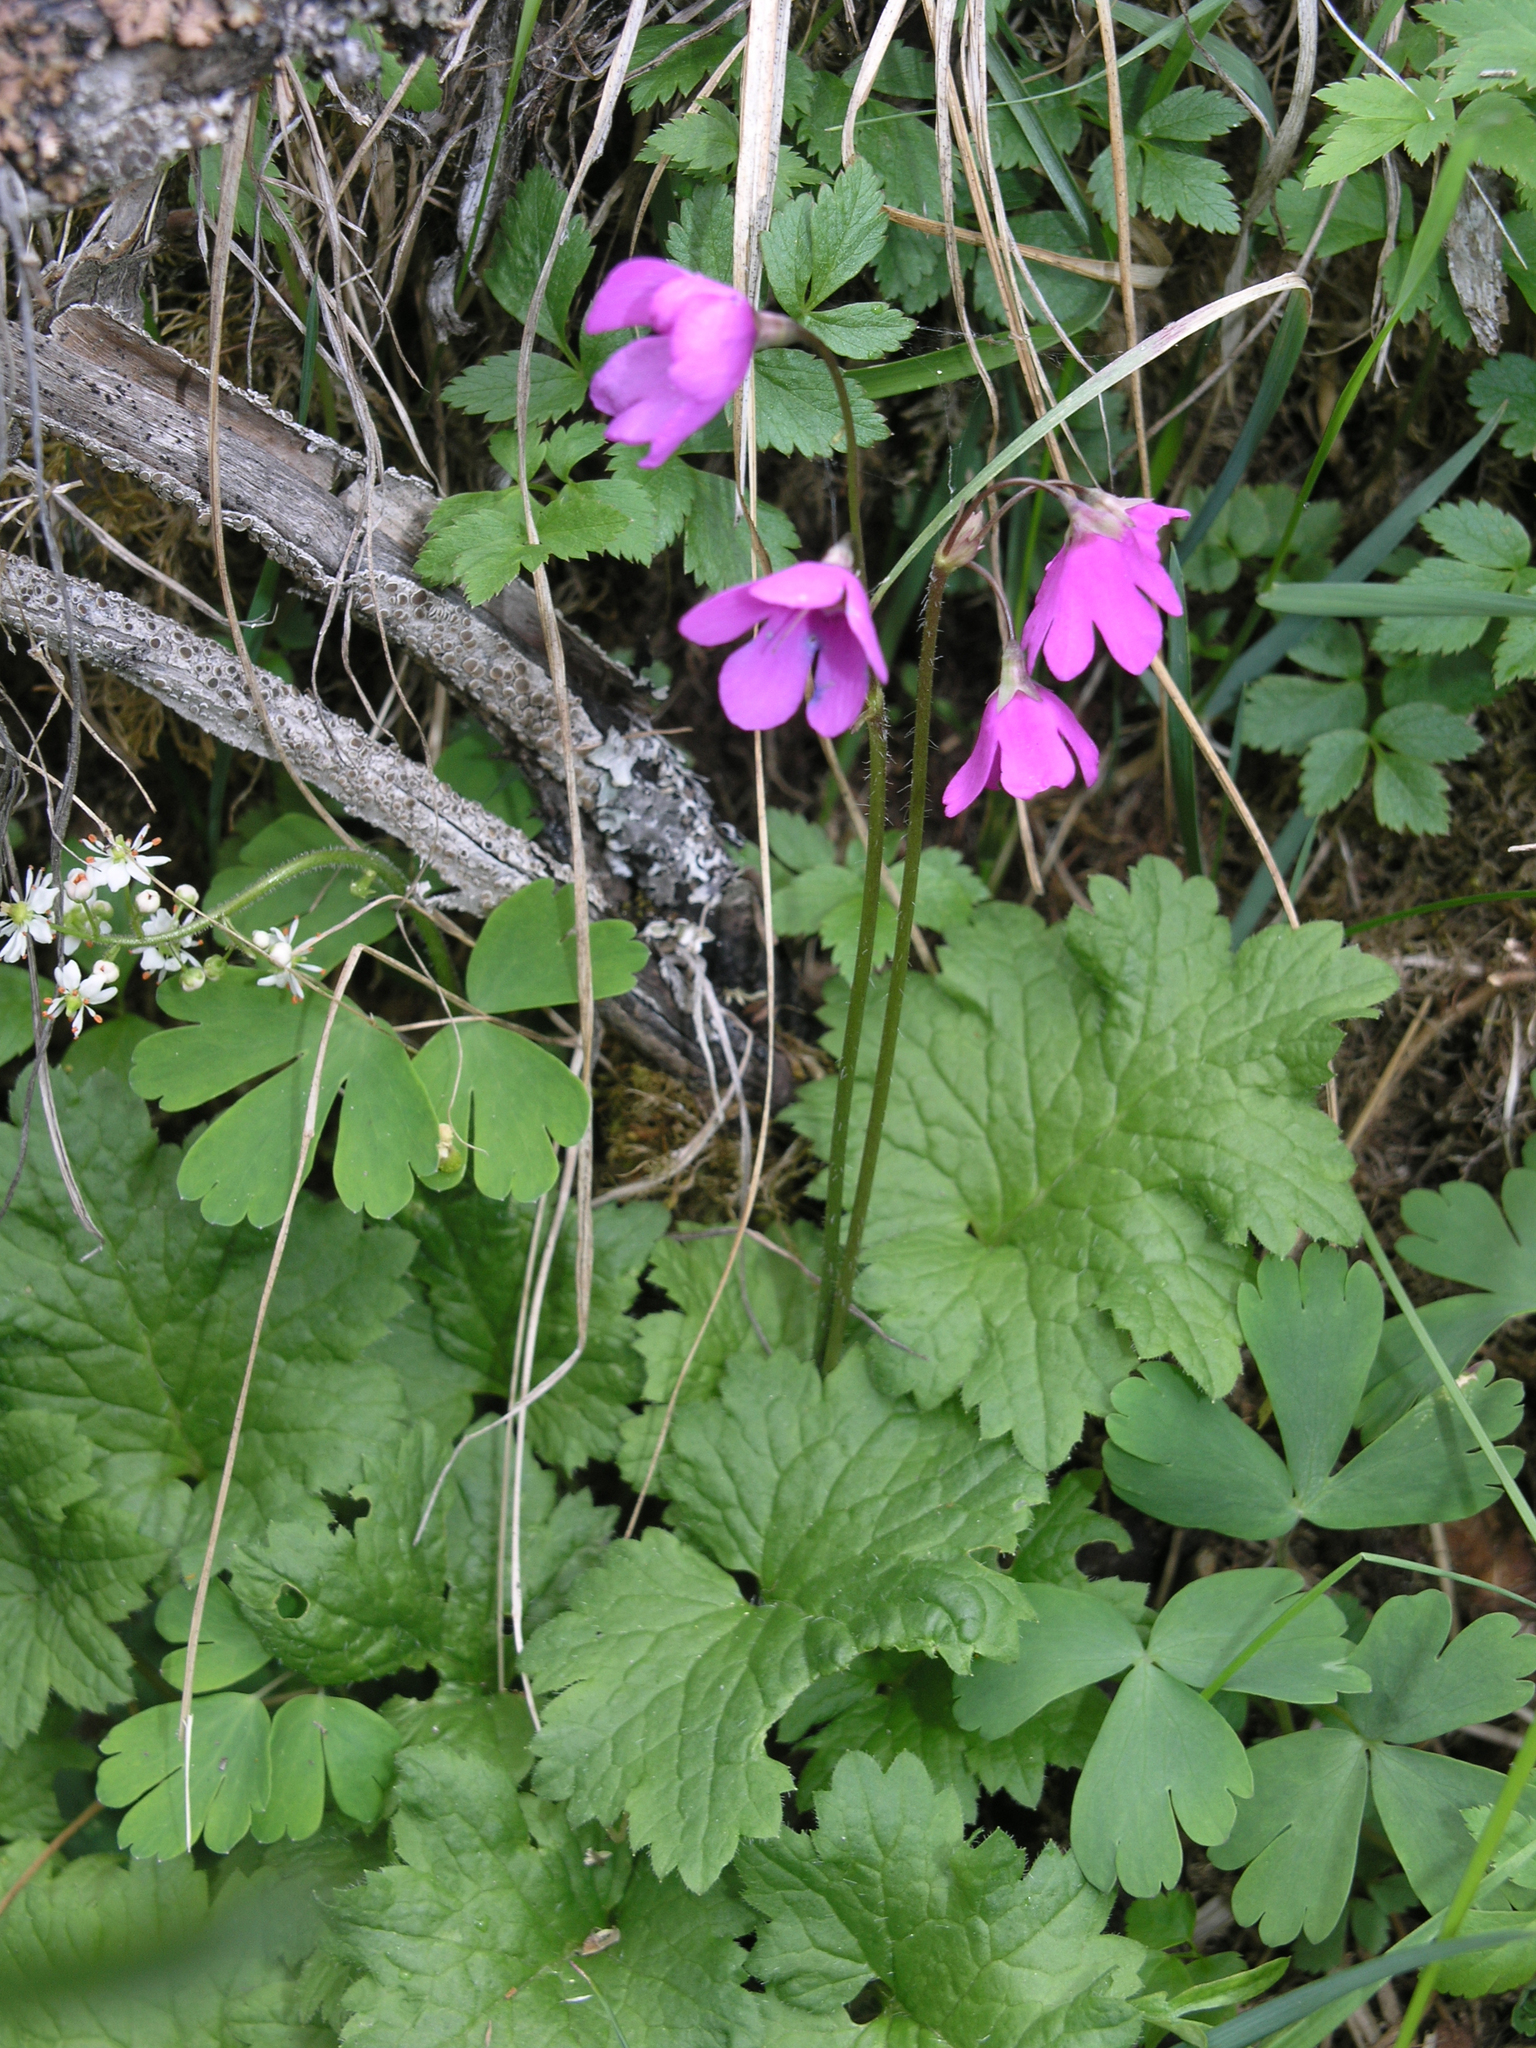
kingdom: Plantae
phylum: Tracheophyta
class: Magnoliopsida
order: Ericales
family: Primulaceae
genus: Primula
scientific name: Primula matthioli
